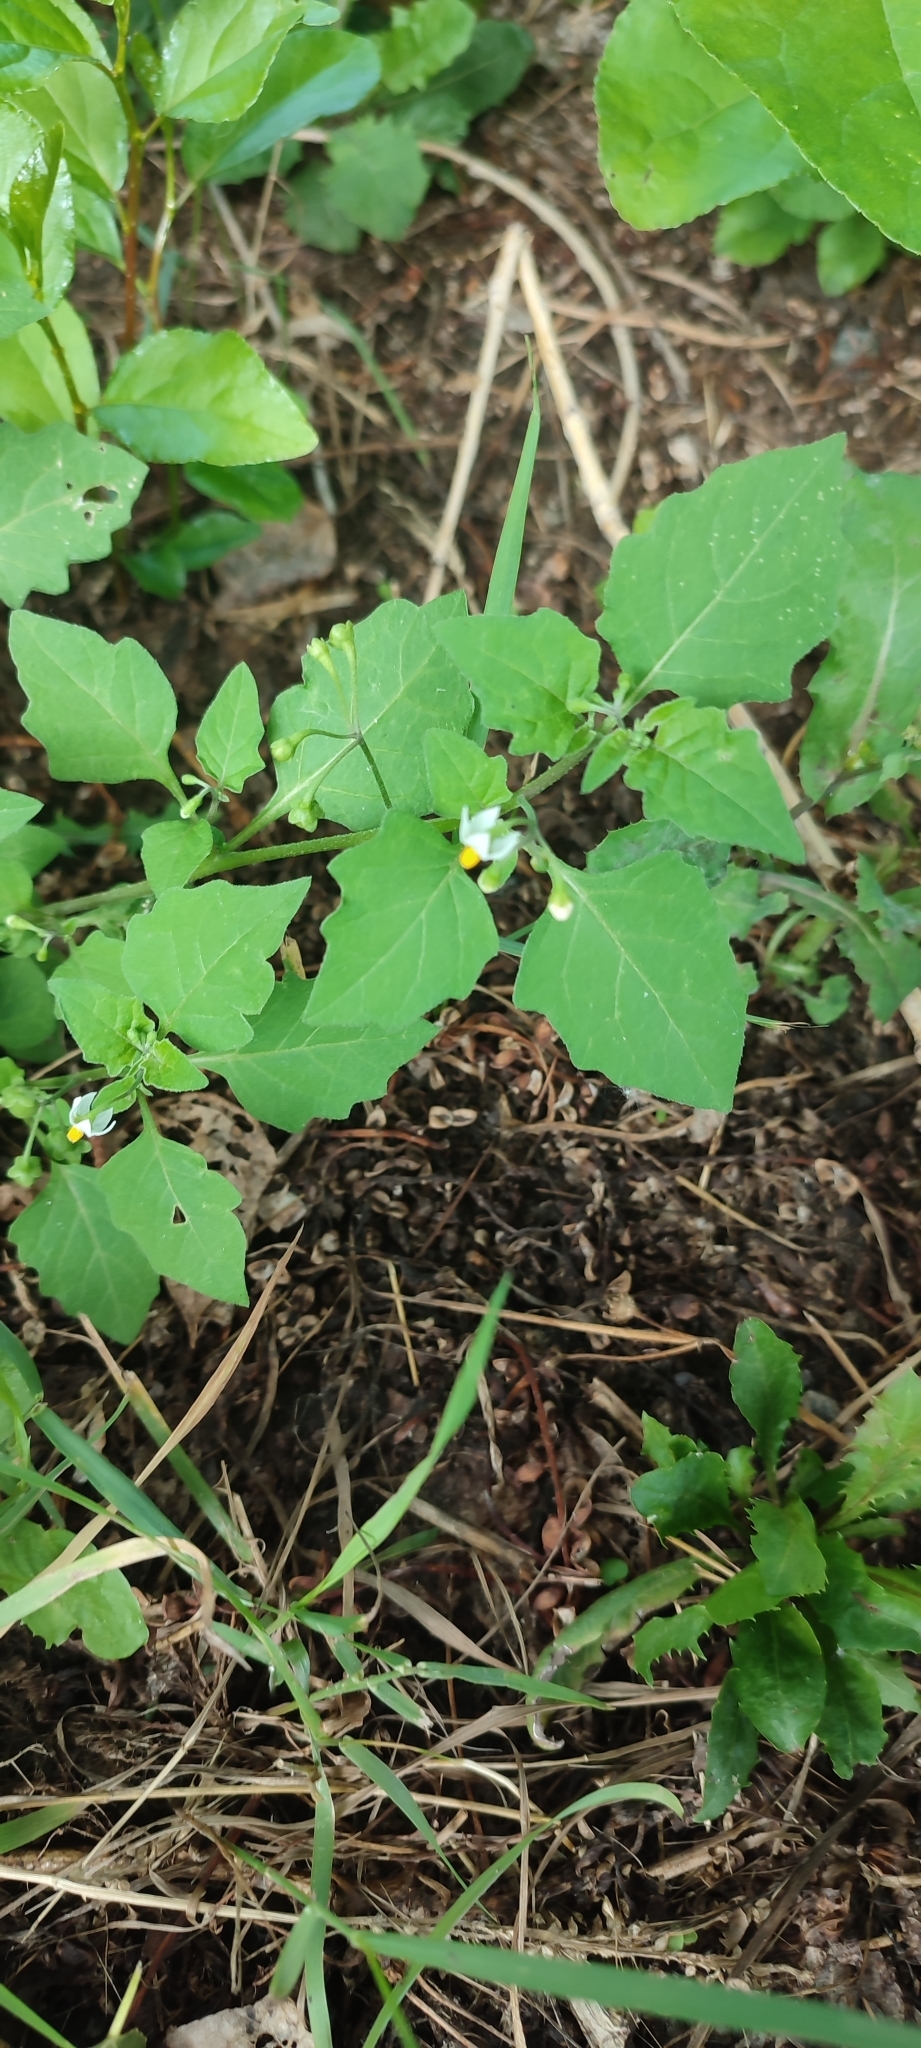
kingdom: Plantae
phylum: Tracheophyta
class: Magnoliopsida
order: Solanales
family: Solanaceae
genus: Solanum
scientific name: Solanum nigrum
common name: Black nightshade
